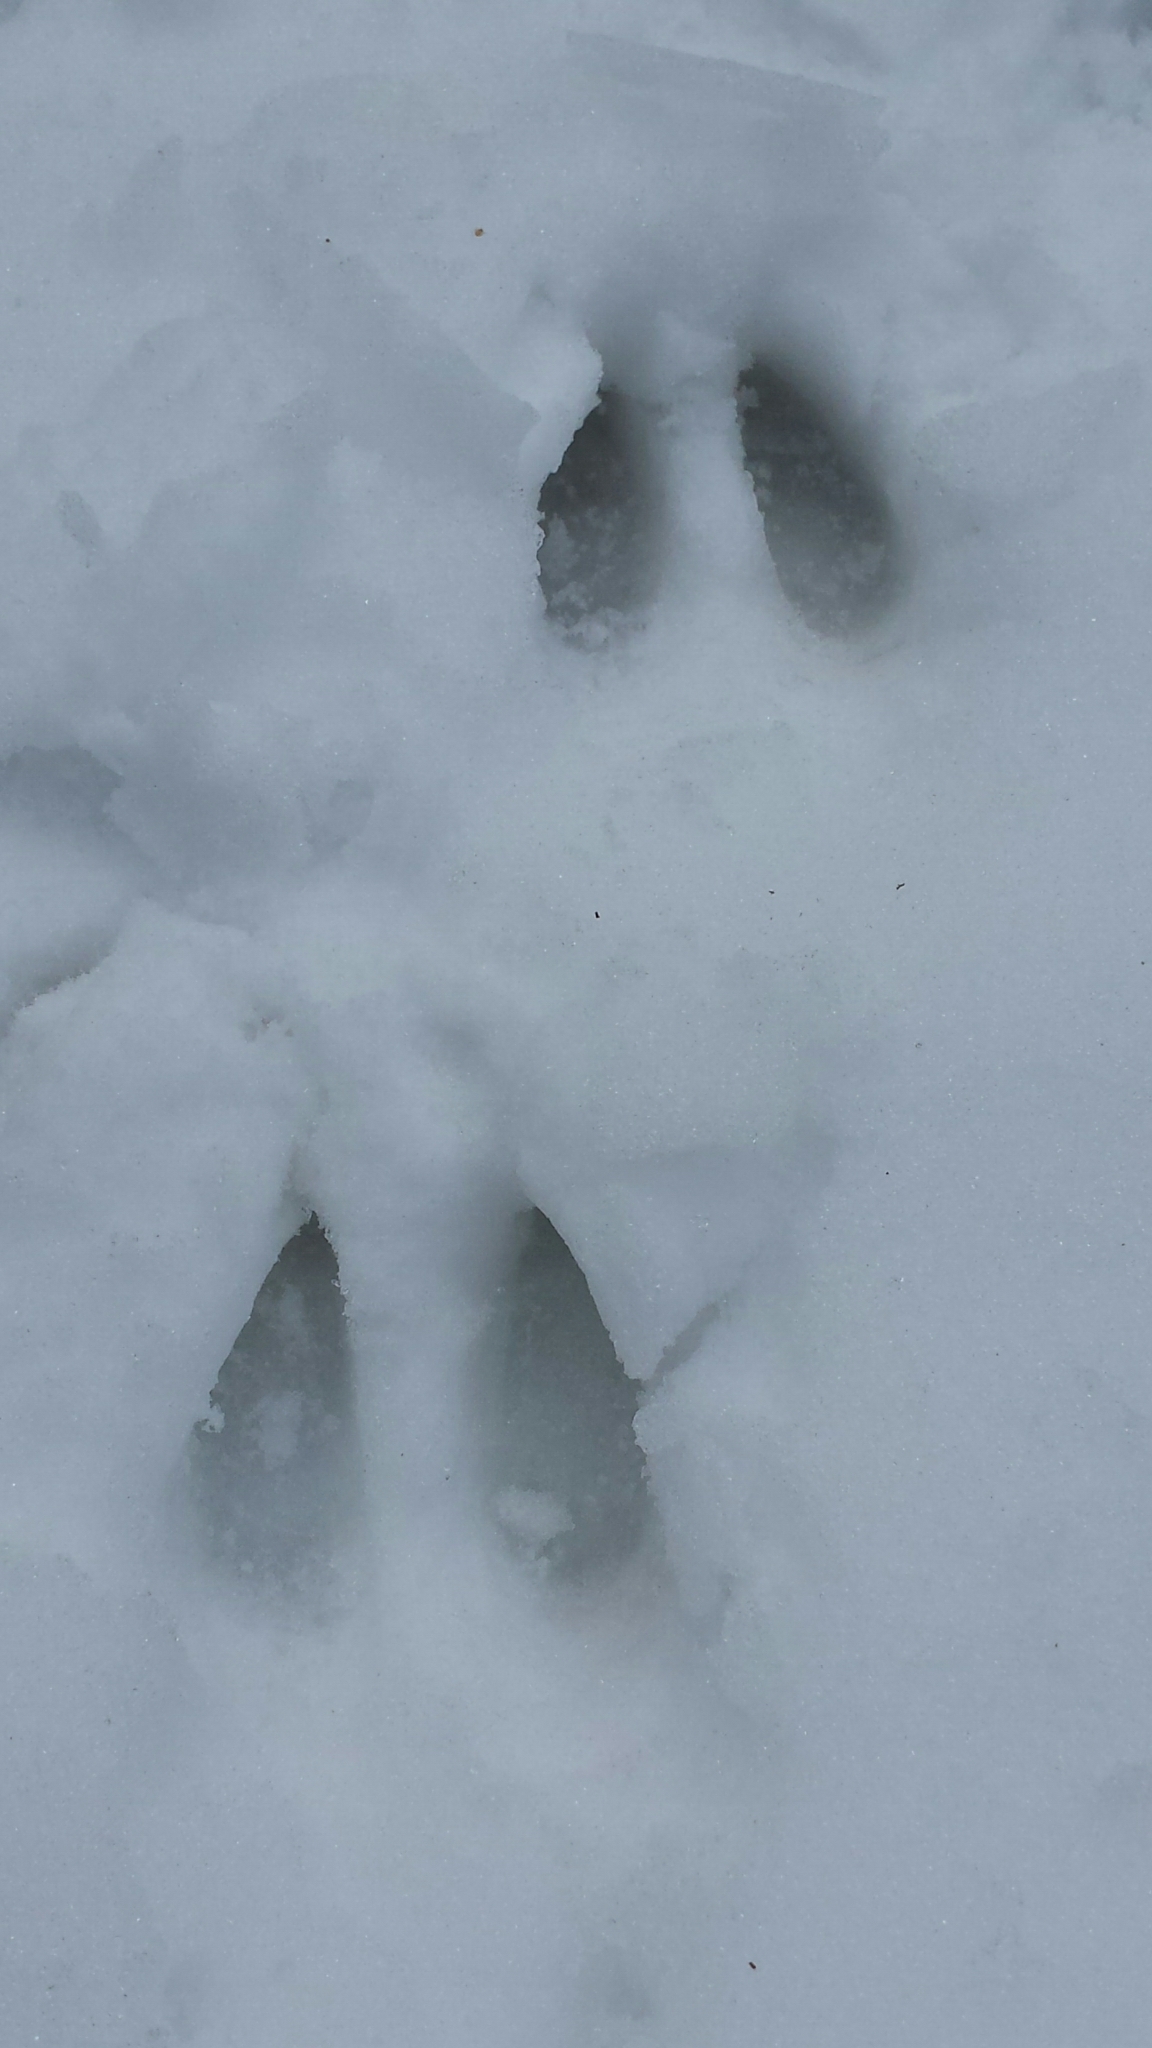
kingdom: Animalia
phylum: Chordata
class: Mammalia
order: Artiodactyla
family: Cervidae
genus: Odocoileus
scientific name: Odocoileus virginianus
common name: White-tailed deer
